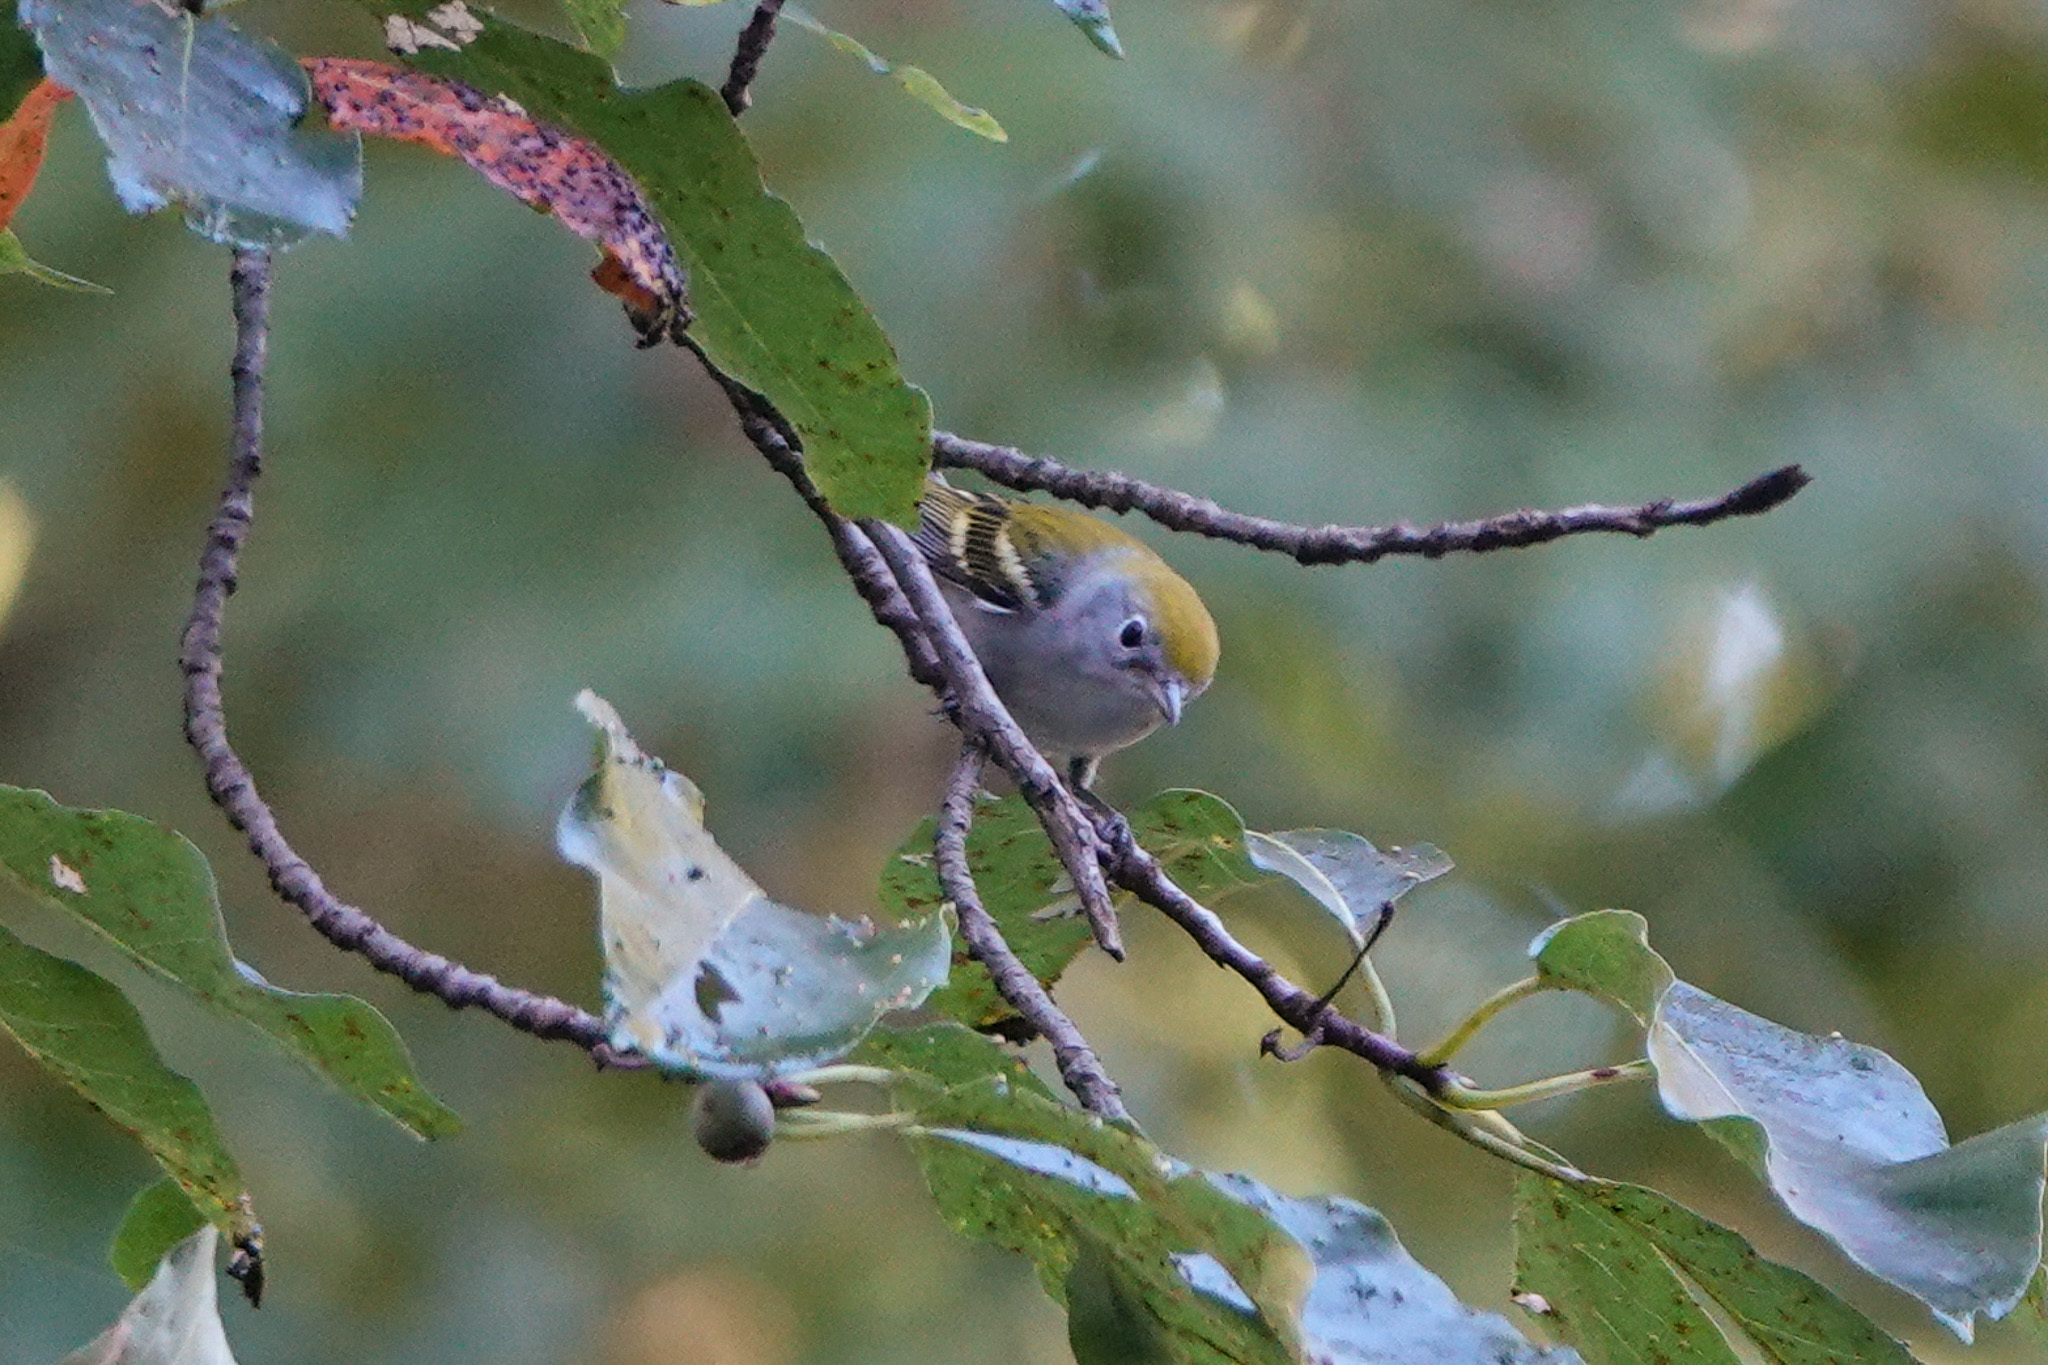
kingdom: Animalia
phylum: Chordata
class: Aves
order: Passeriformes
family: Parulidae
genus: Setophaga
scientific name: Setophaga pensylvanica
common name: Chestnut-sided warbler
